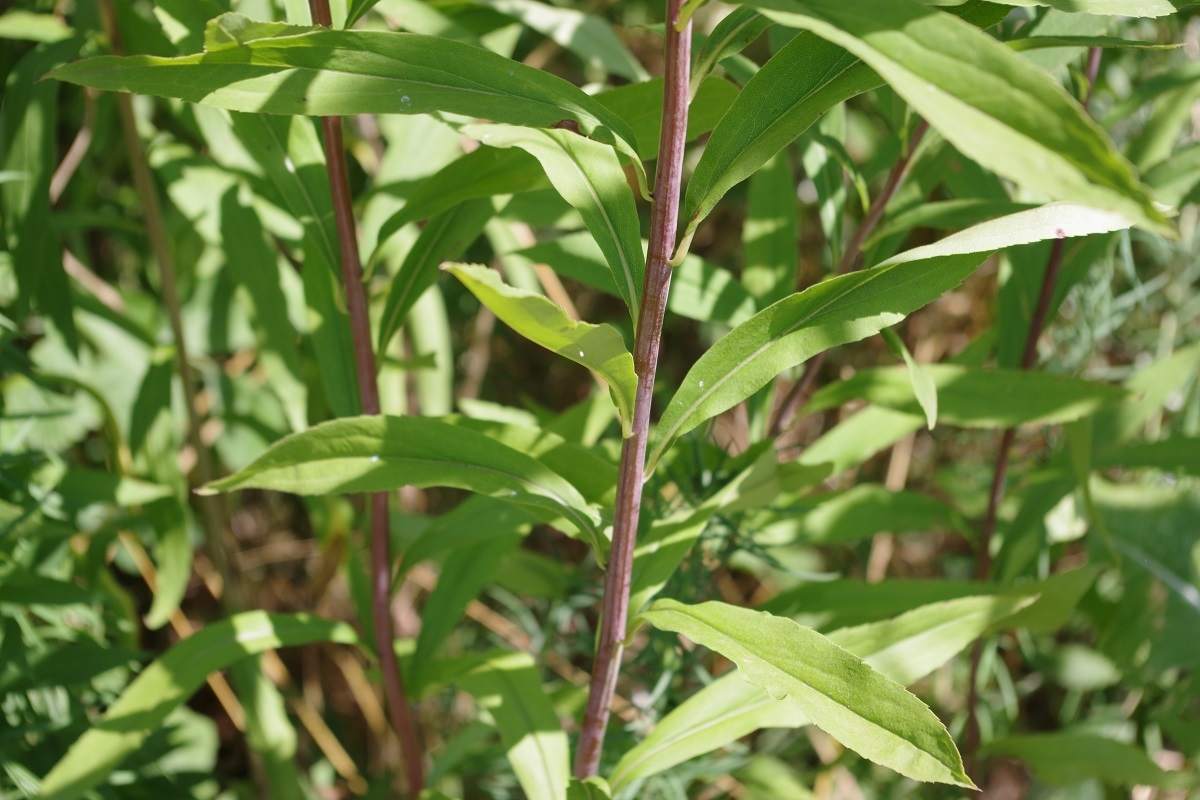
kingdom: Plantae
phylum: Tracheophyta
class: Magnoliopsida
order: Asterales
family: Asteraceae
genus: Solidago
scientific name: Solidago gigantea
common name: Giant goldenrod
